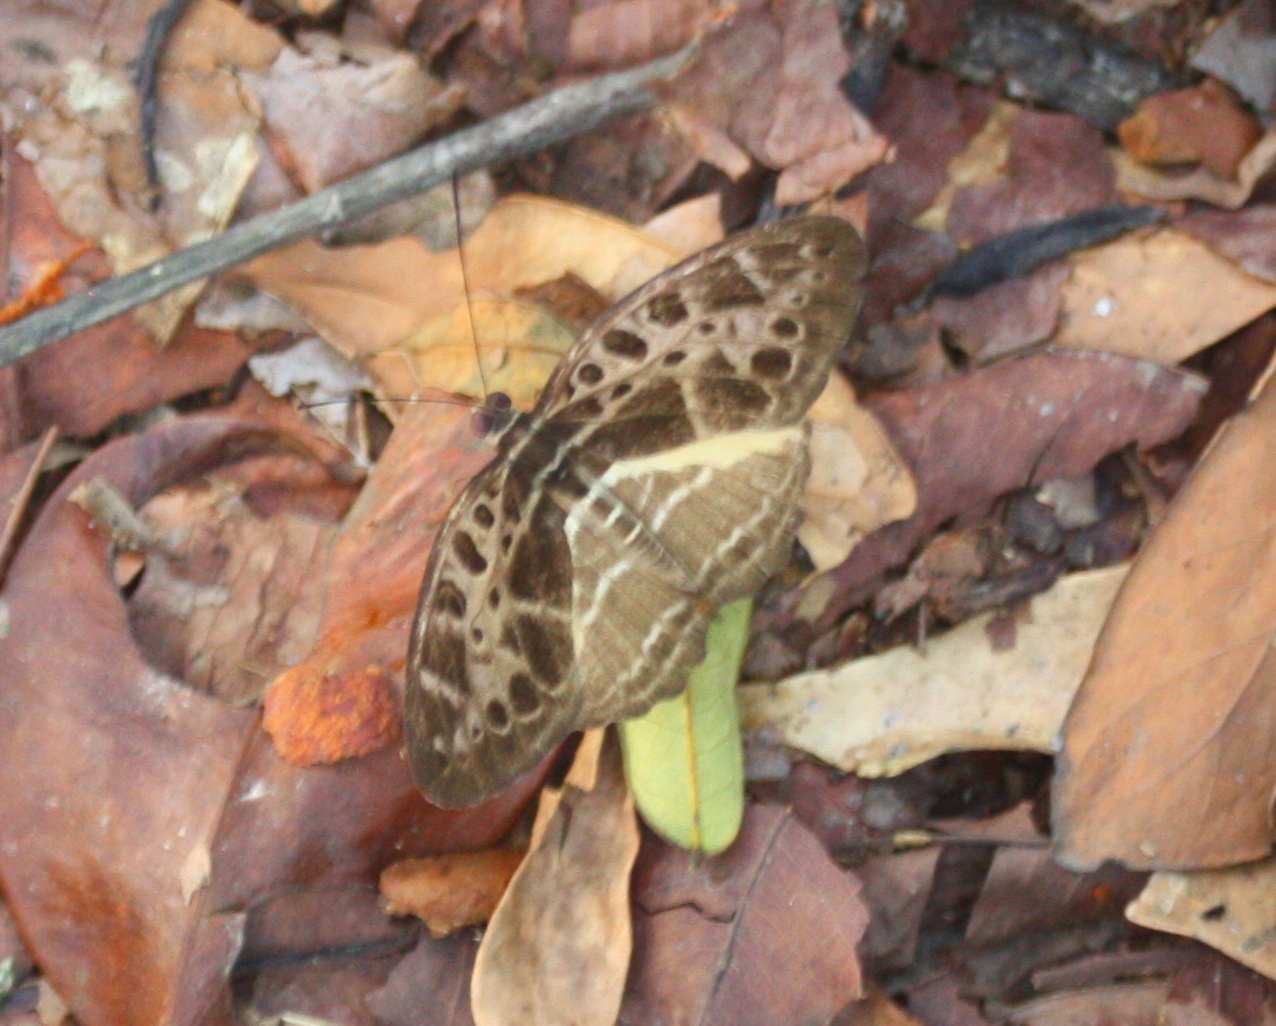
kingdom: Animalia
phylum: Arthropoda
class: Insecta
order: Lepidoptera
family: Nymphalidae
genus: Catuna
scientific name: Catuna
